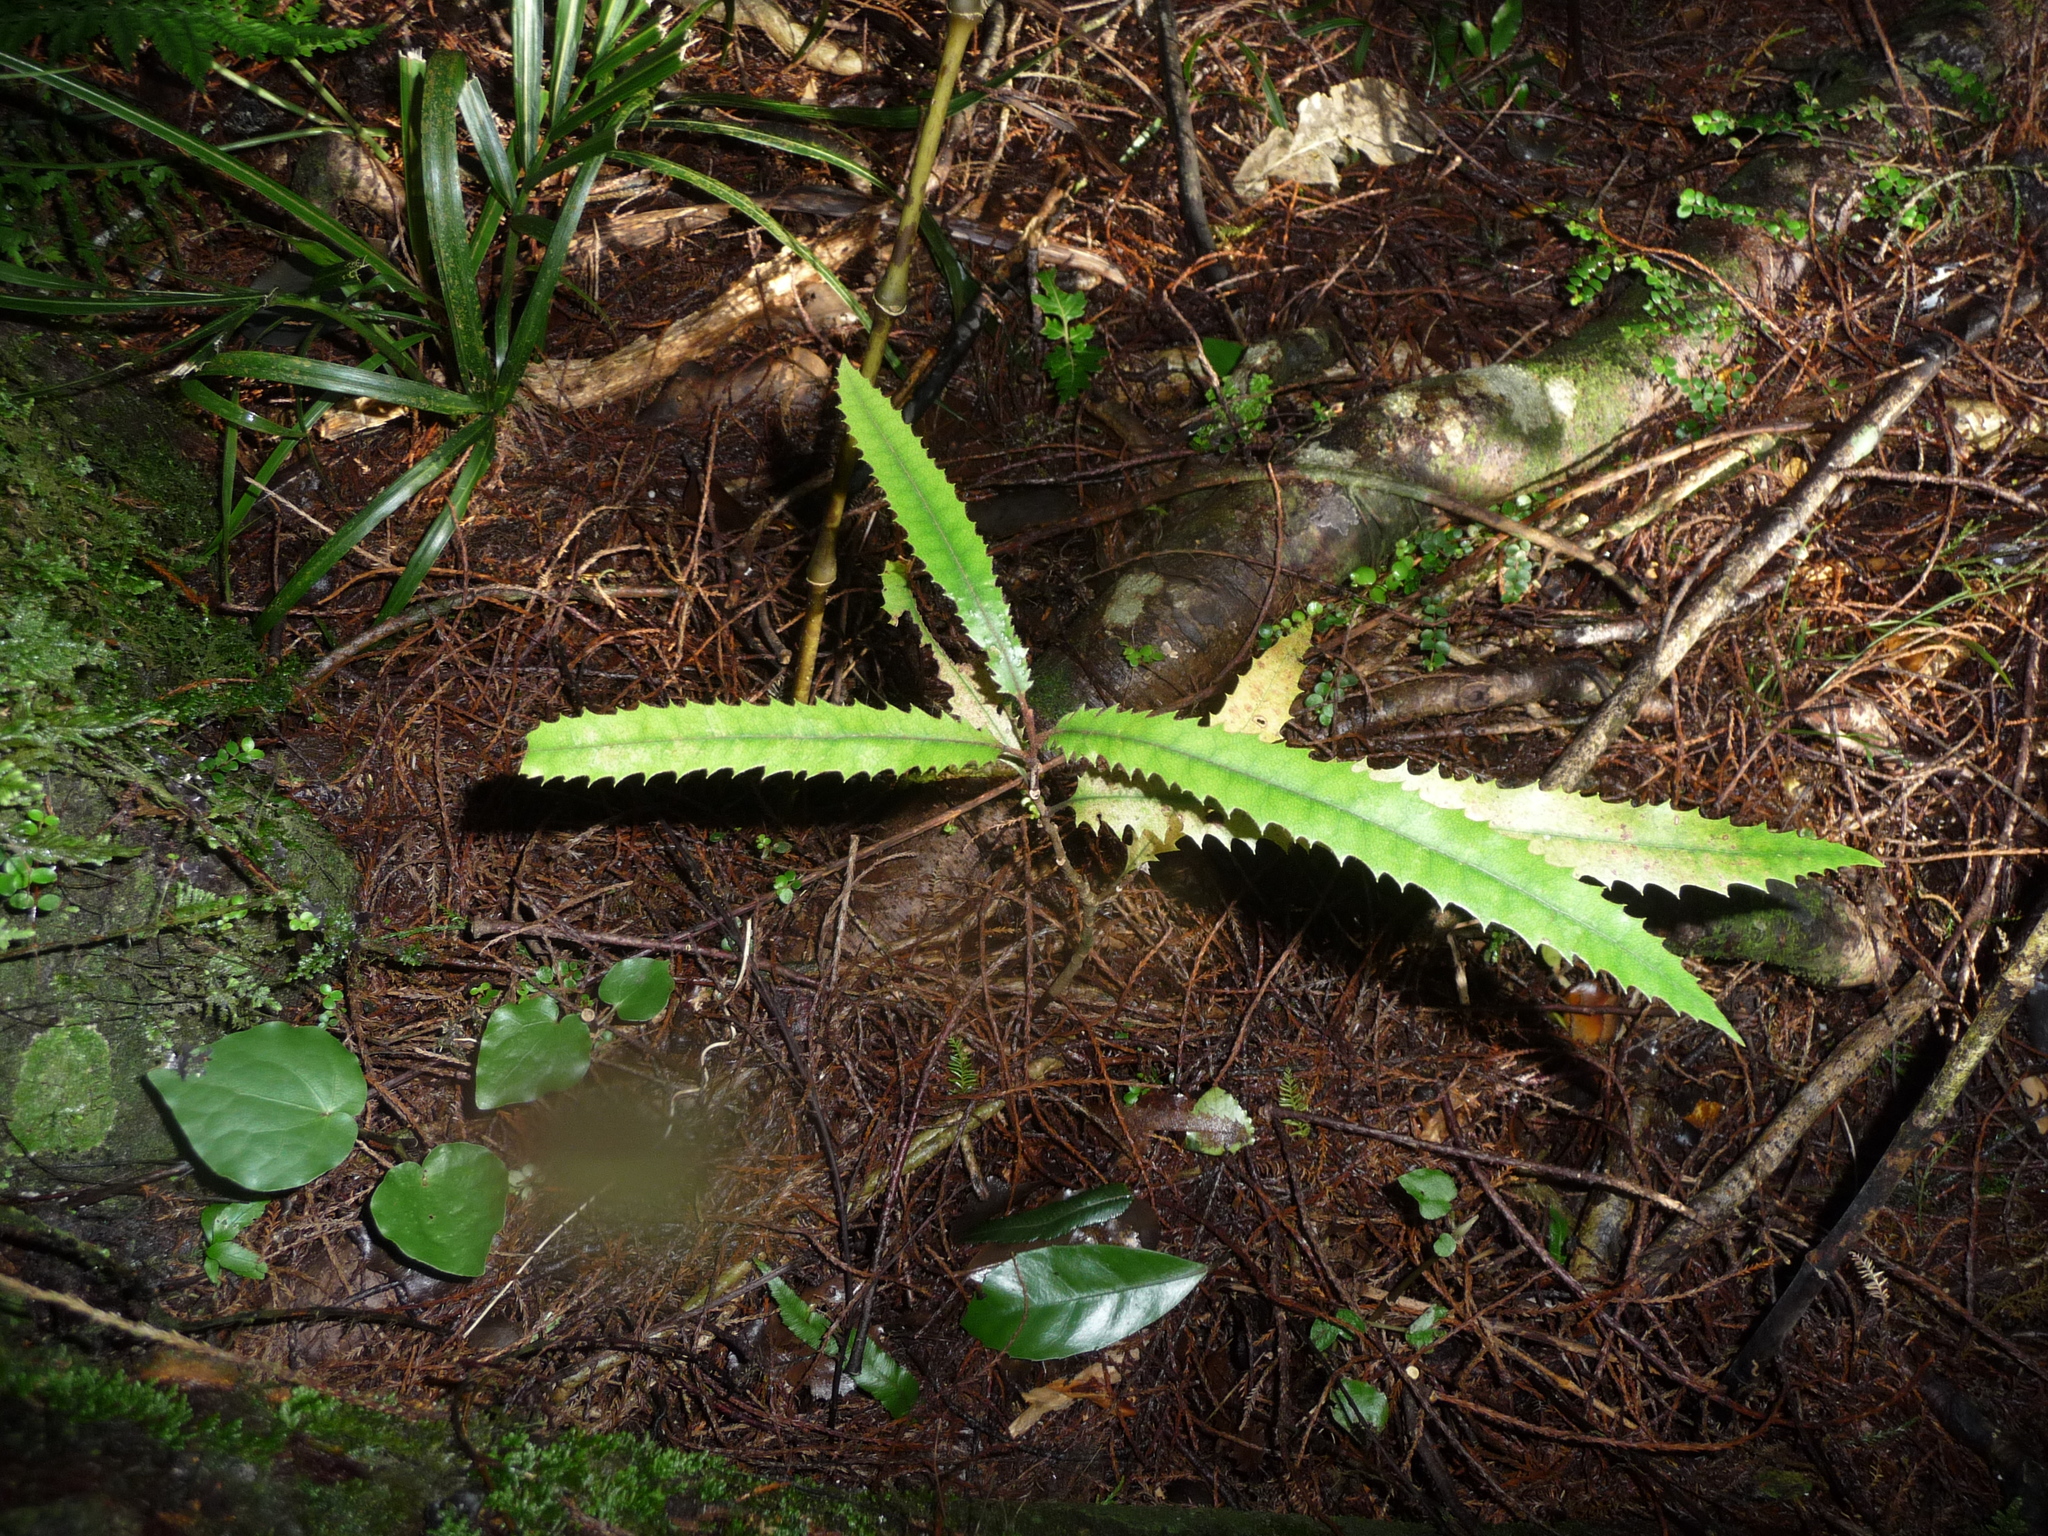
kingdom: Plantae
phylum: Tracheophyta
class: Magnoliopsida
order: Proteales
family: Proteaceae
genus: Knightia
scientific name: Knightia excelsa
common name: New zealand-honeysuckle
